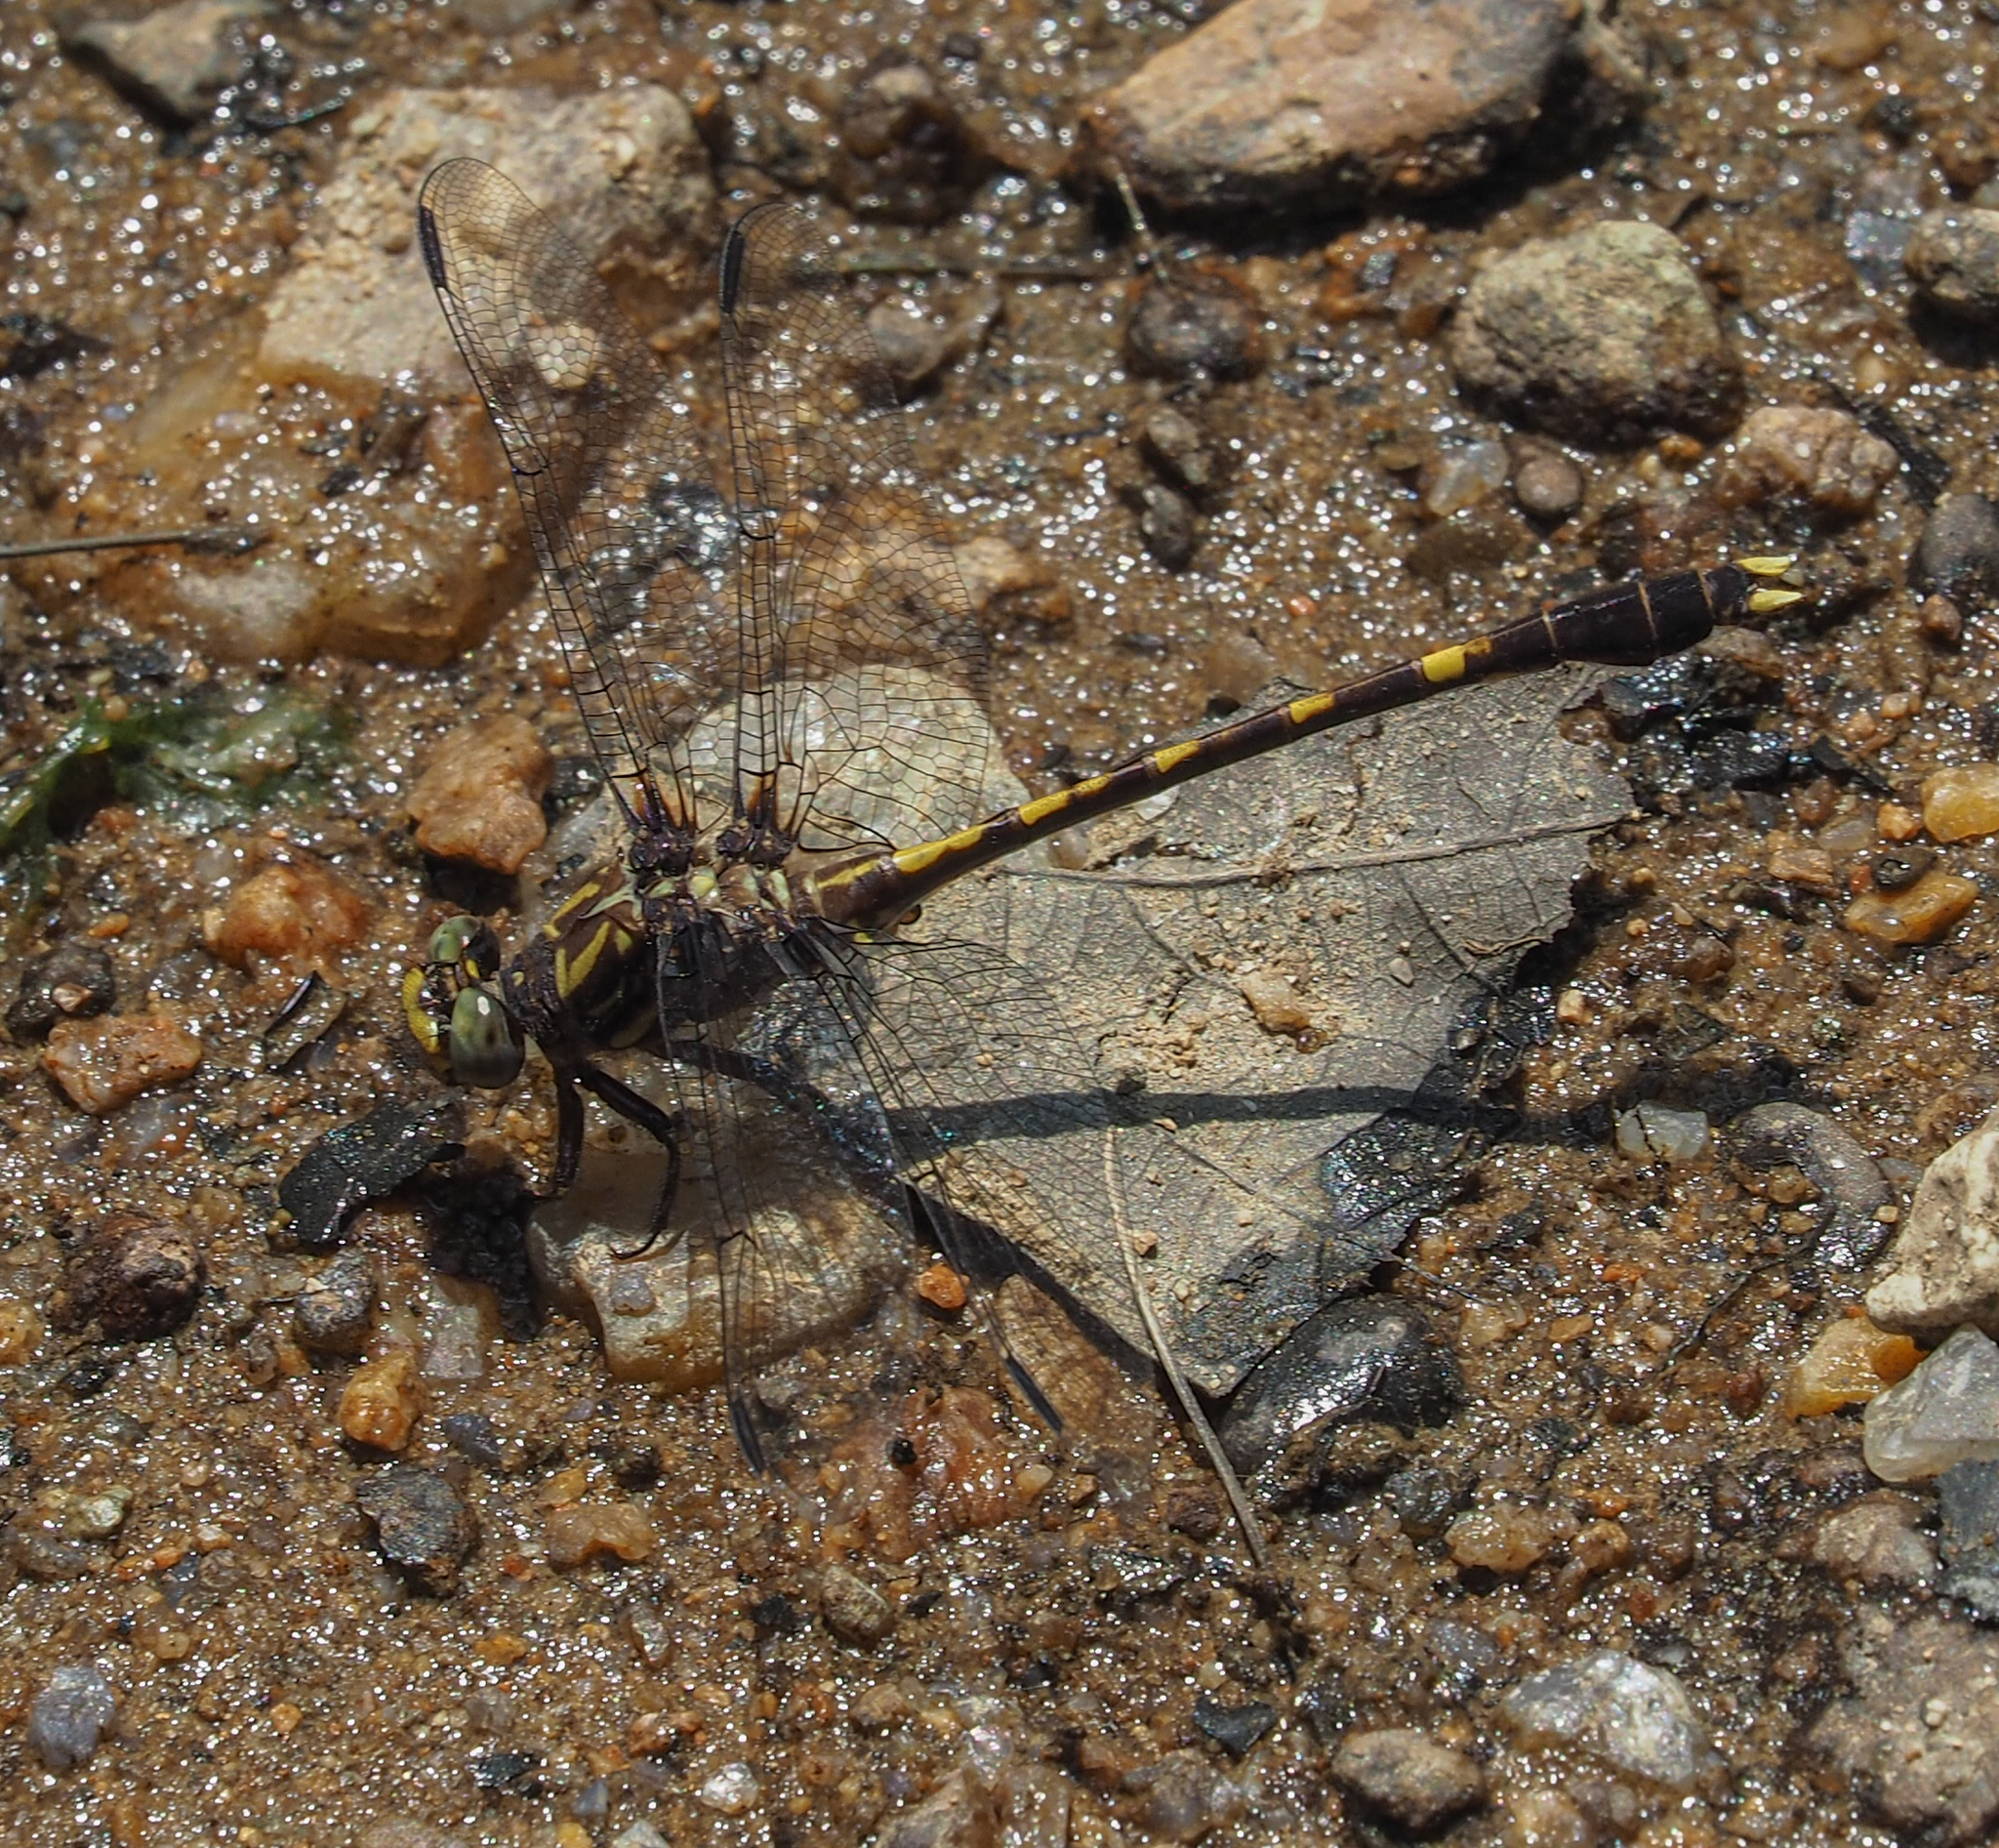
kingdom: Animalia
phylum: Arthropoda
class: Insecta
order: Odonata
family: Gomphidae
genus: Progomphus
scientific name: Progomphus obscurus
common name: Common sanddragon
